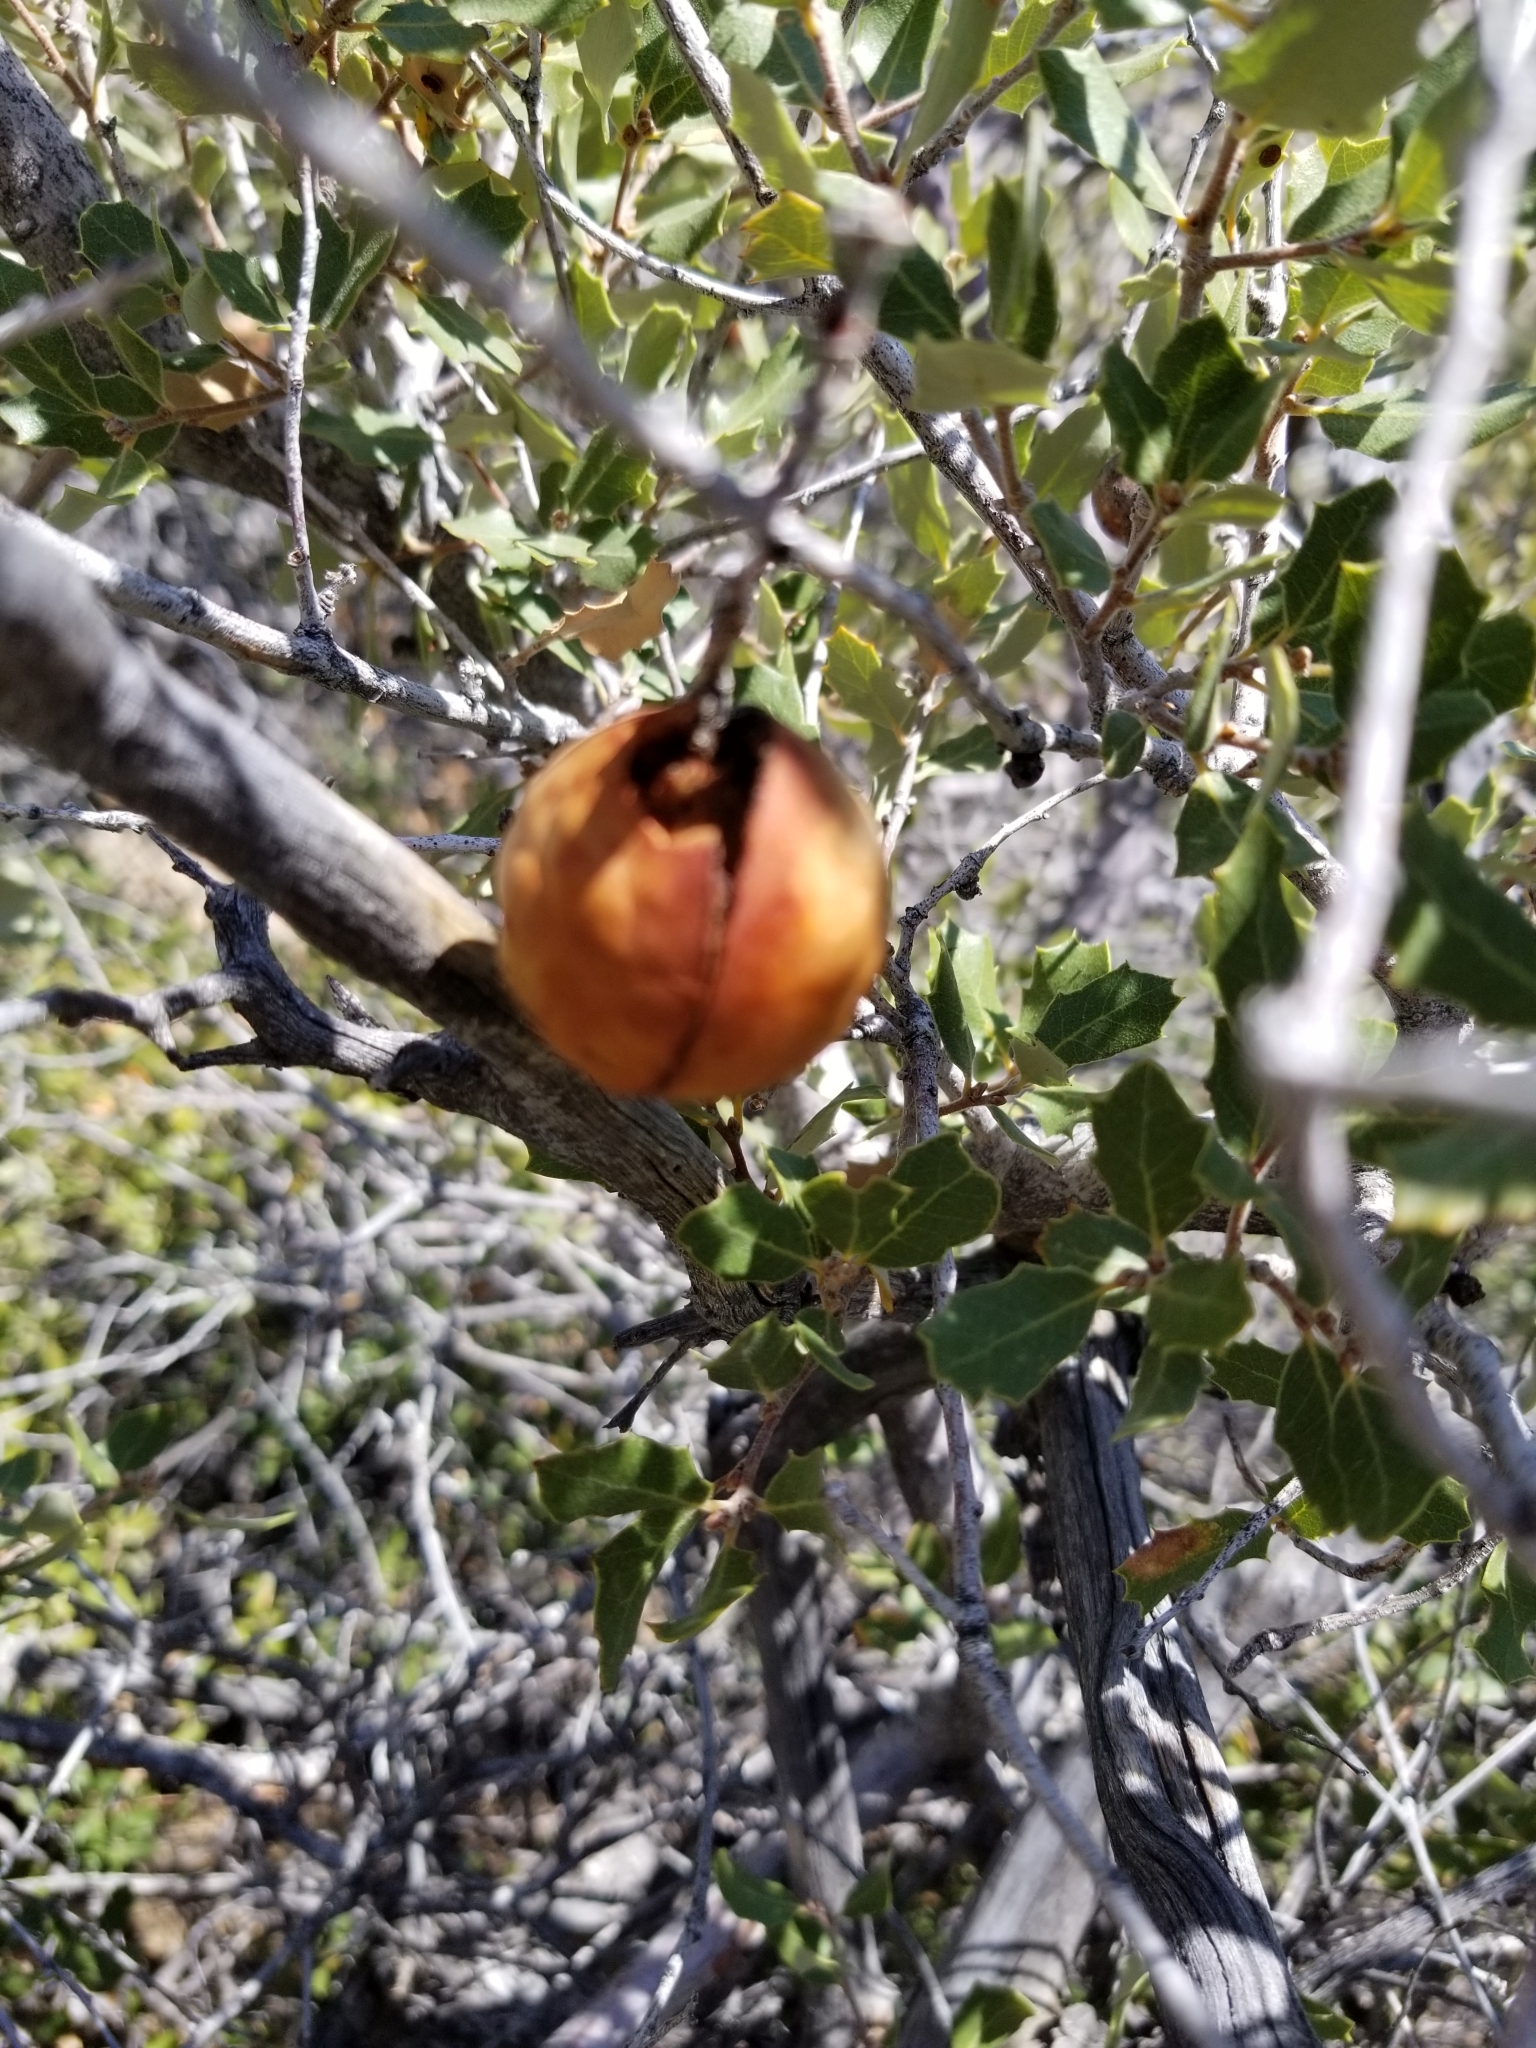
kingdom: Animalia
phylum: Arthropoda
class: Insecta
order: Hymenoptera
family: Cynipidae
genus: Andricus
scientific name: Andricus quercuscalifornicus
